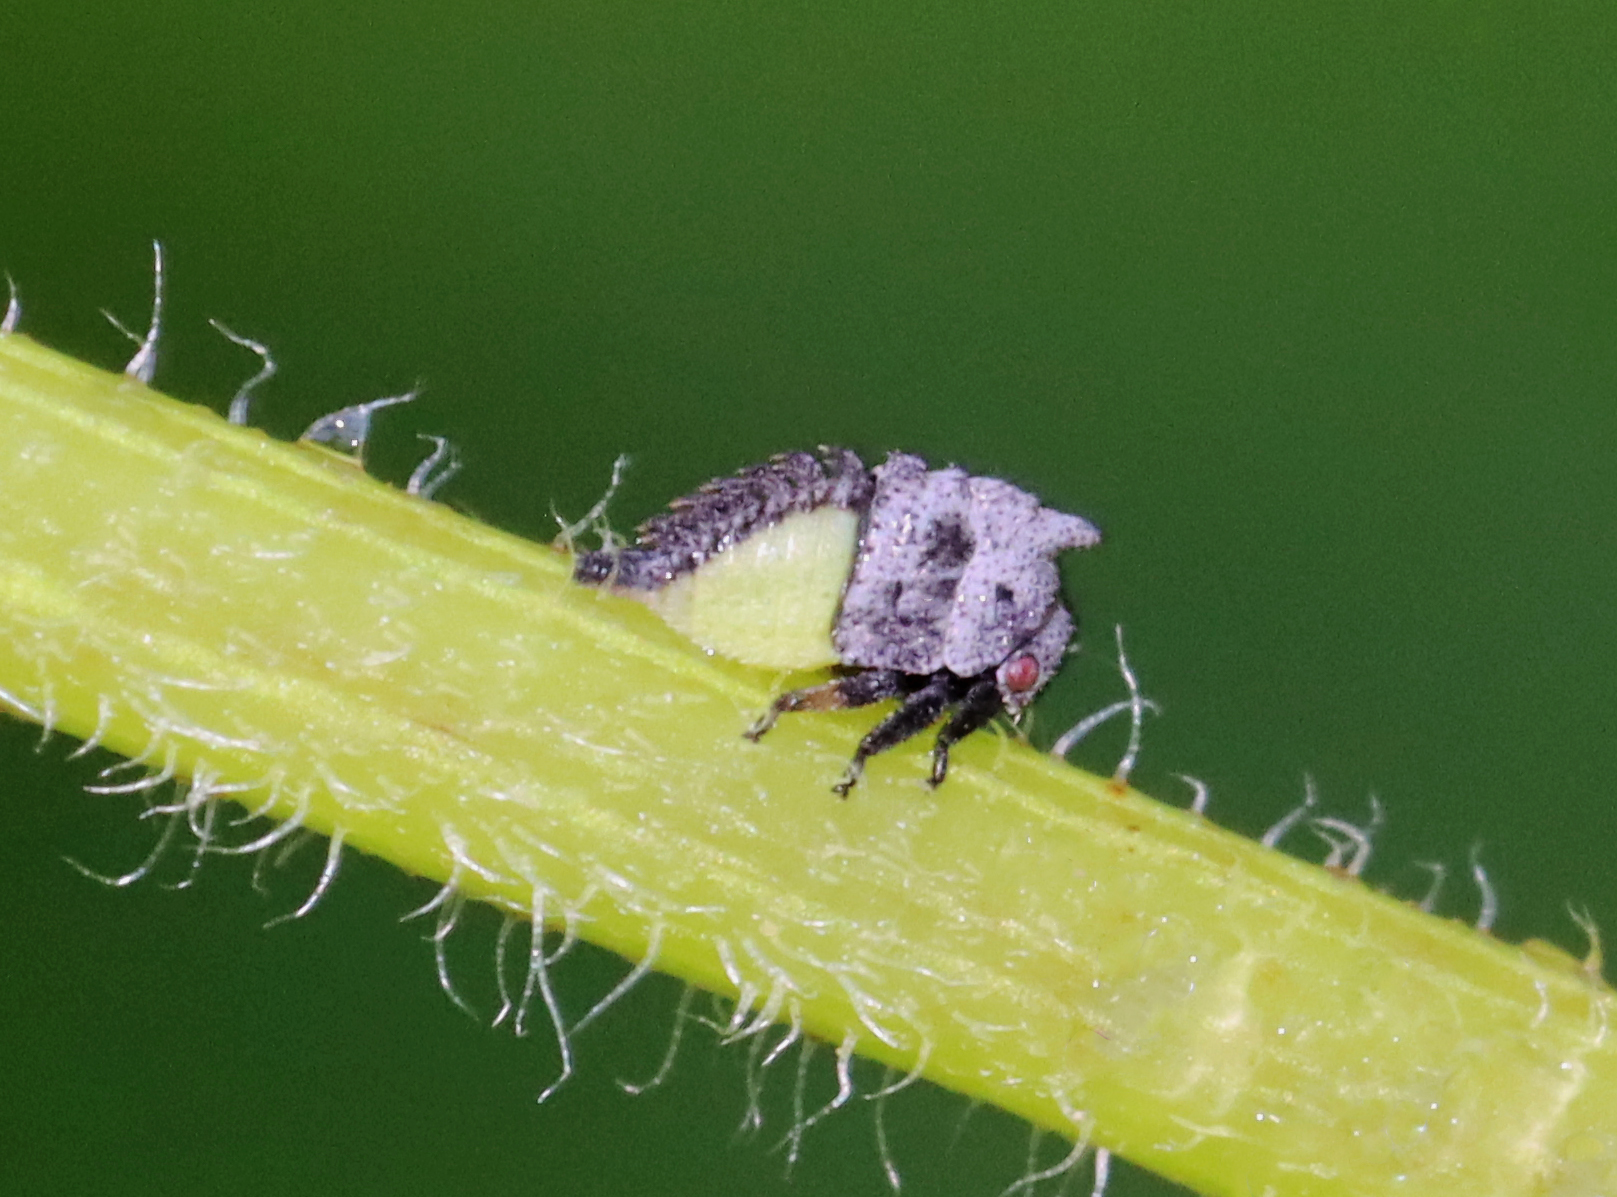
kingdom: Animalia
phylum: Arthropoda
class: Insecta
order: Hemiptera
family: Membracidae
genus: Enchenopa
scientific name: Enchenopa latipes
